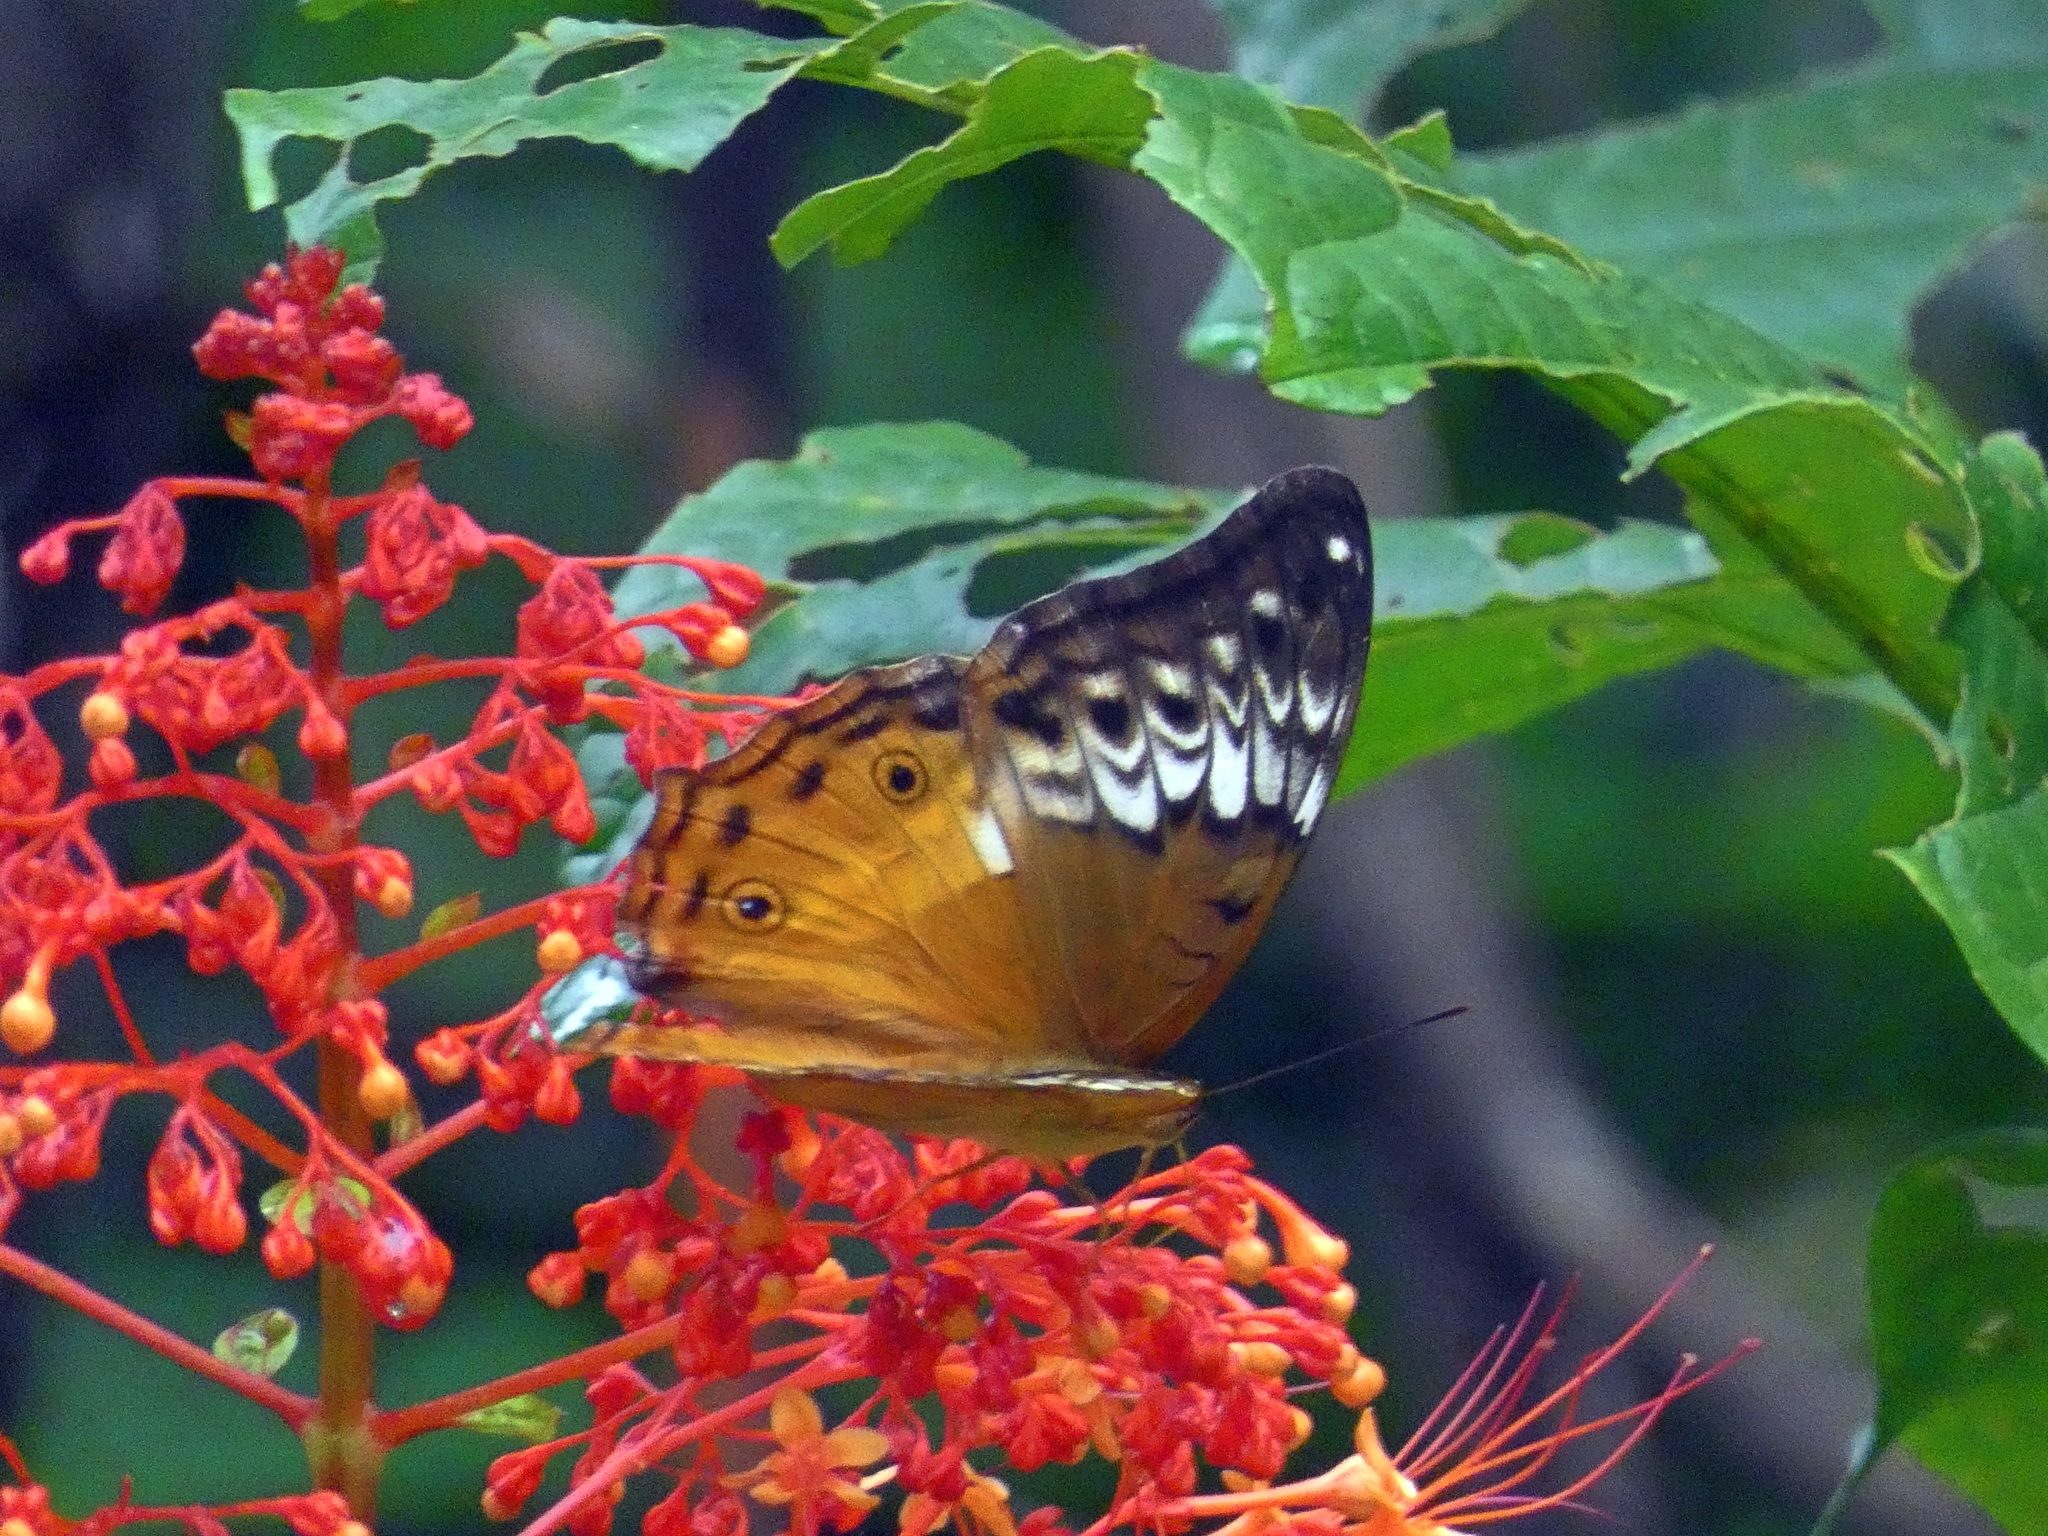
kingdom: Animalia
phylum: Arthropoda
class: Insecta
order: Lepidoptera
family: Nymphalidae
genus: Vindula
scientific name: Vindula arsinoe
